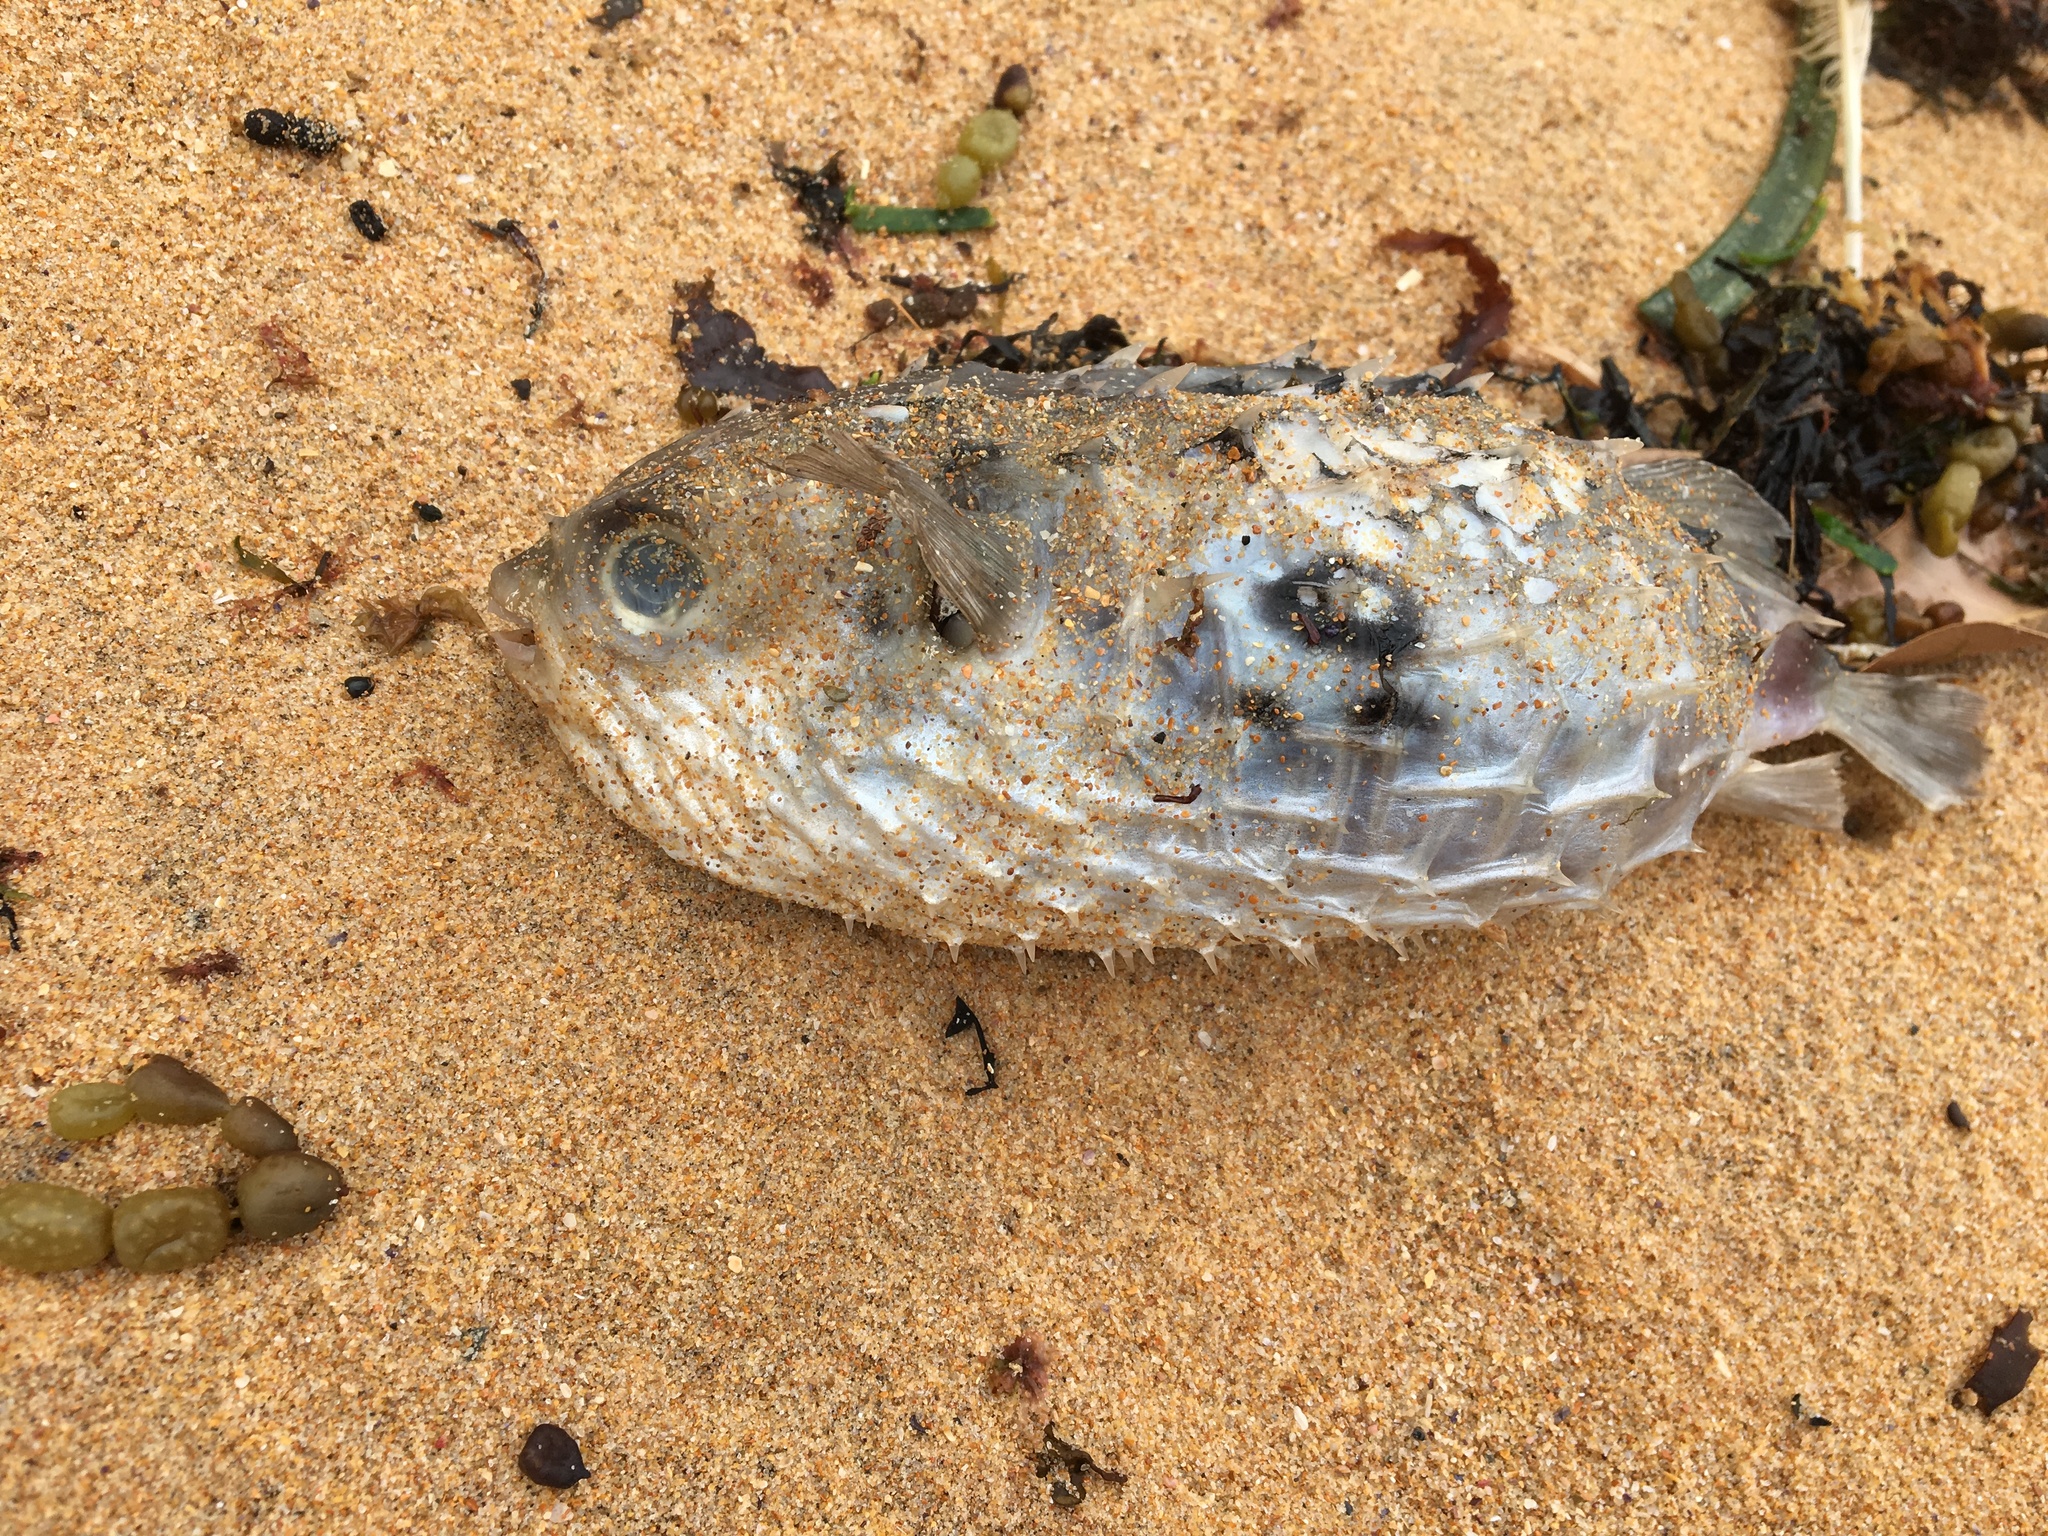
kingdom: Animalia
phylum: Chordata
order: Tetraodontiformes
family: Diodontidae
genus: Allomycterus
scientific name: Allomycterus pilatus
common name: No common name
